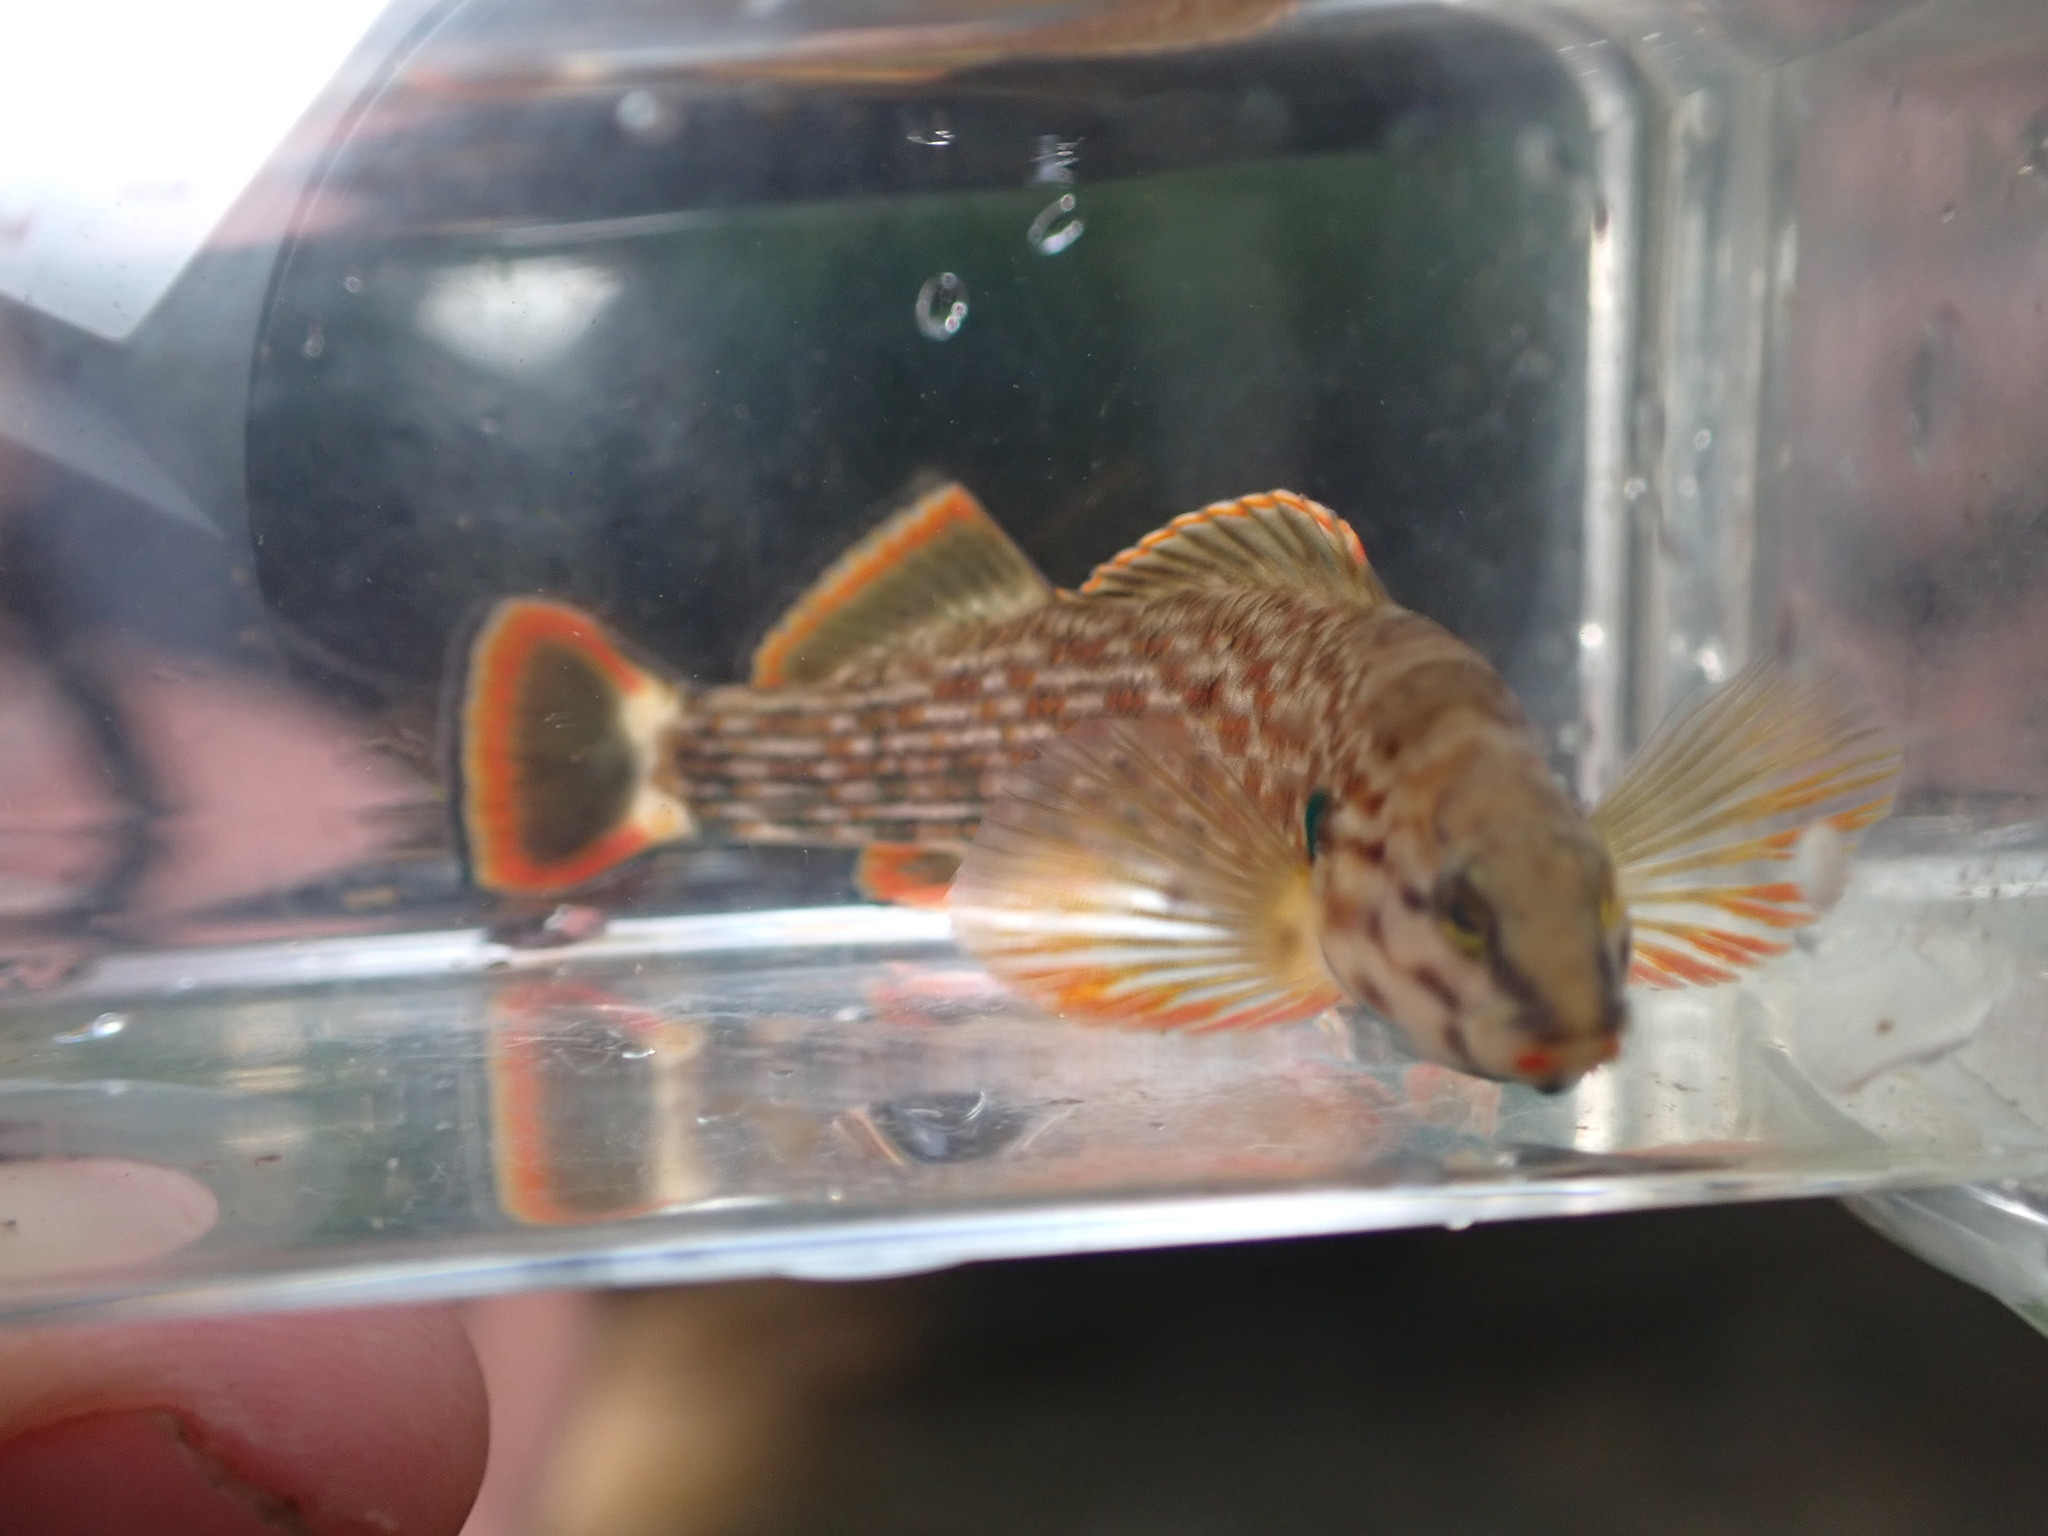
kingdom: Animalia
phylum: Chordata
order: Perciformes
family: Percidae
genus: Etheostoma
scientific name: Etheostoma rufilineatum
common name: Redline darter
